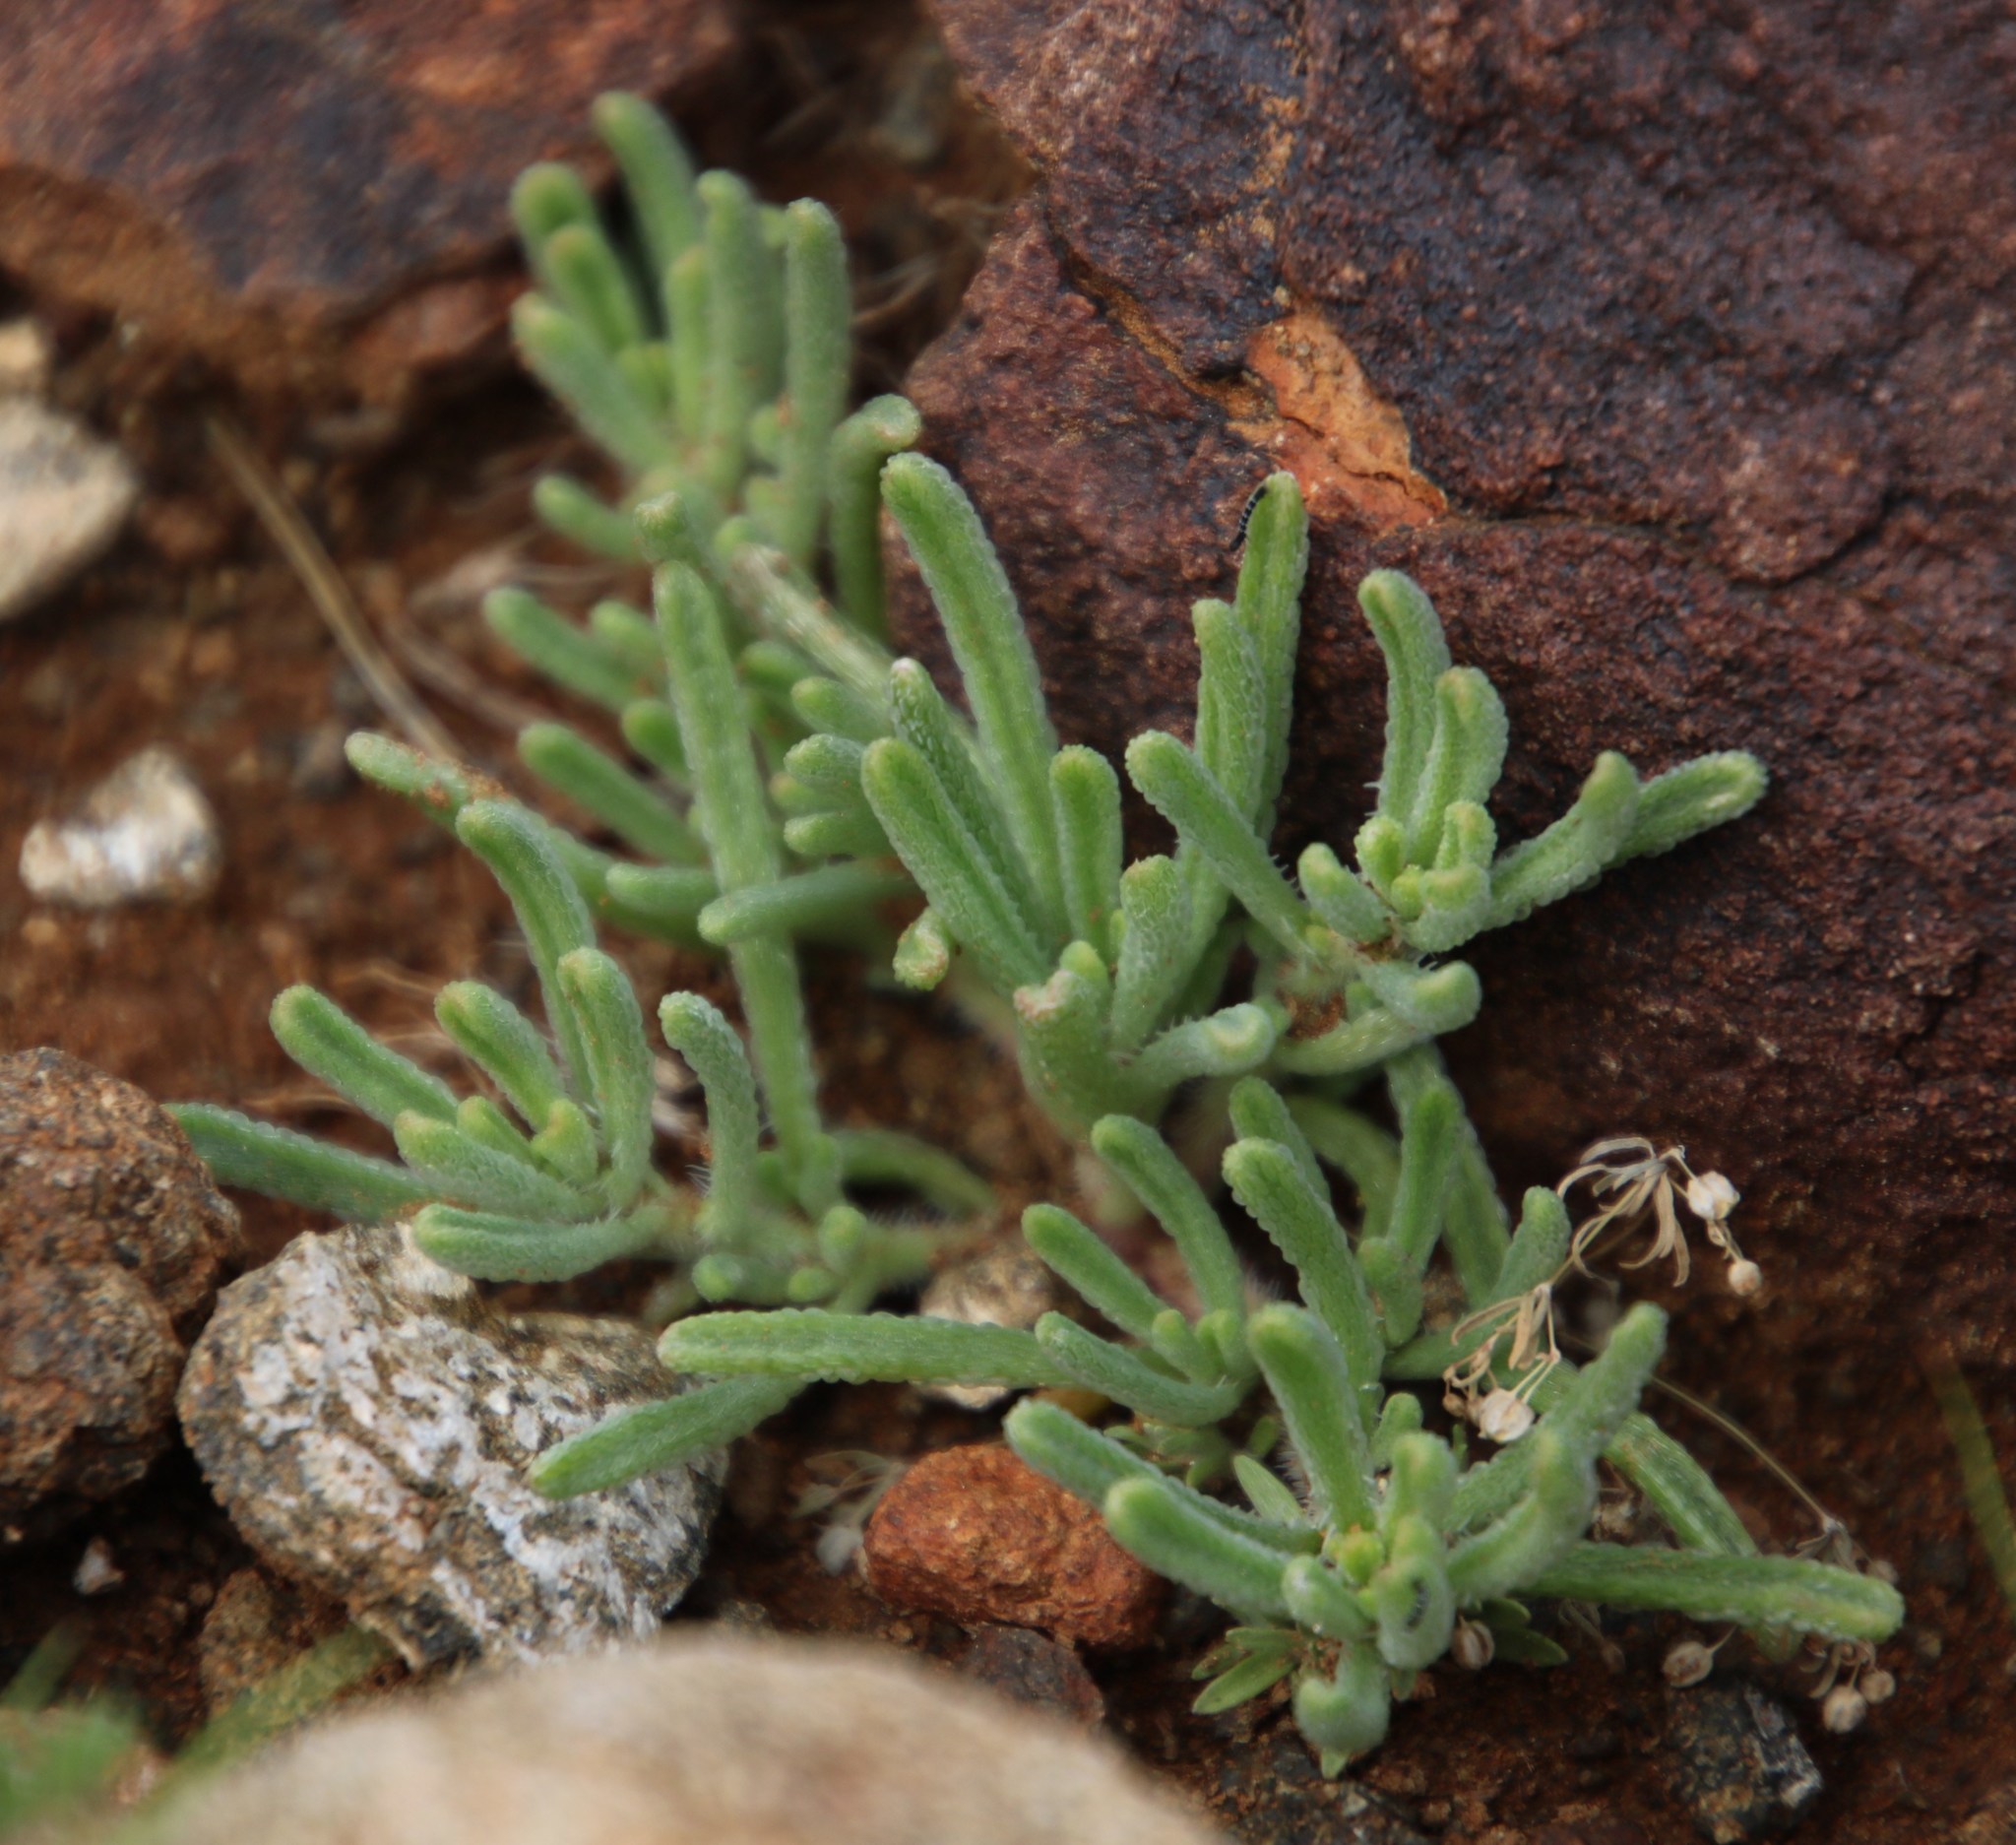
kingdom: Plantae
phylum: Tracheophyta
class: Magnoliopsida
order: Caryophyllales
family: Aizoaceae
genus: Mesembryanthemum
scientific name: Mesembryanthemum inachabense
